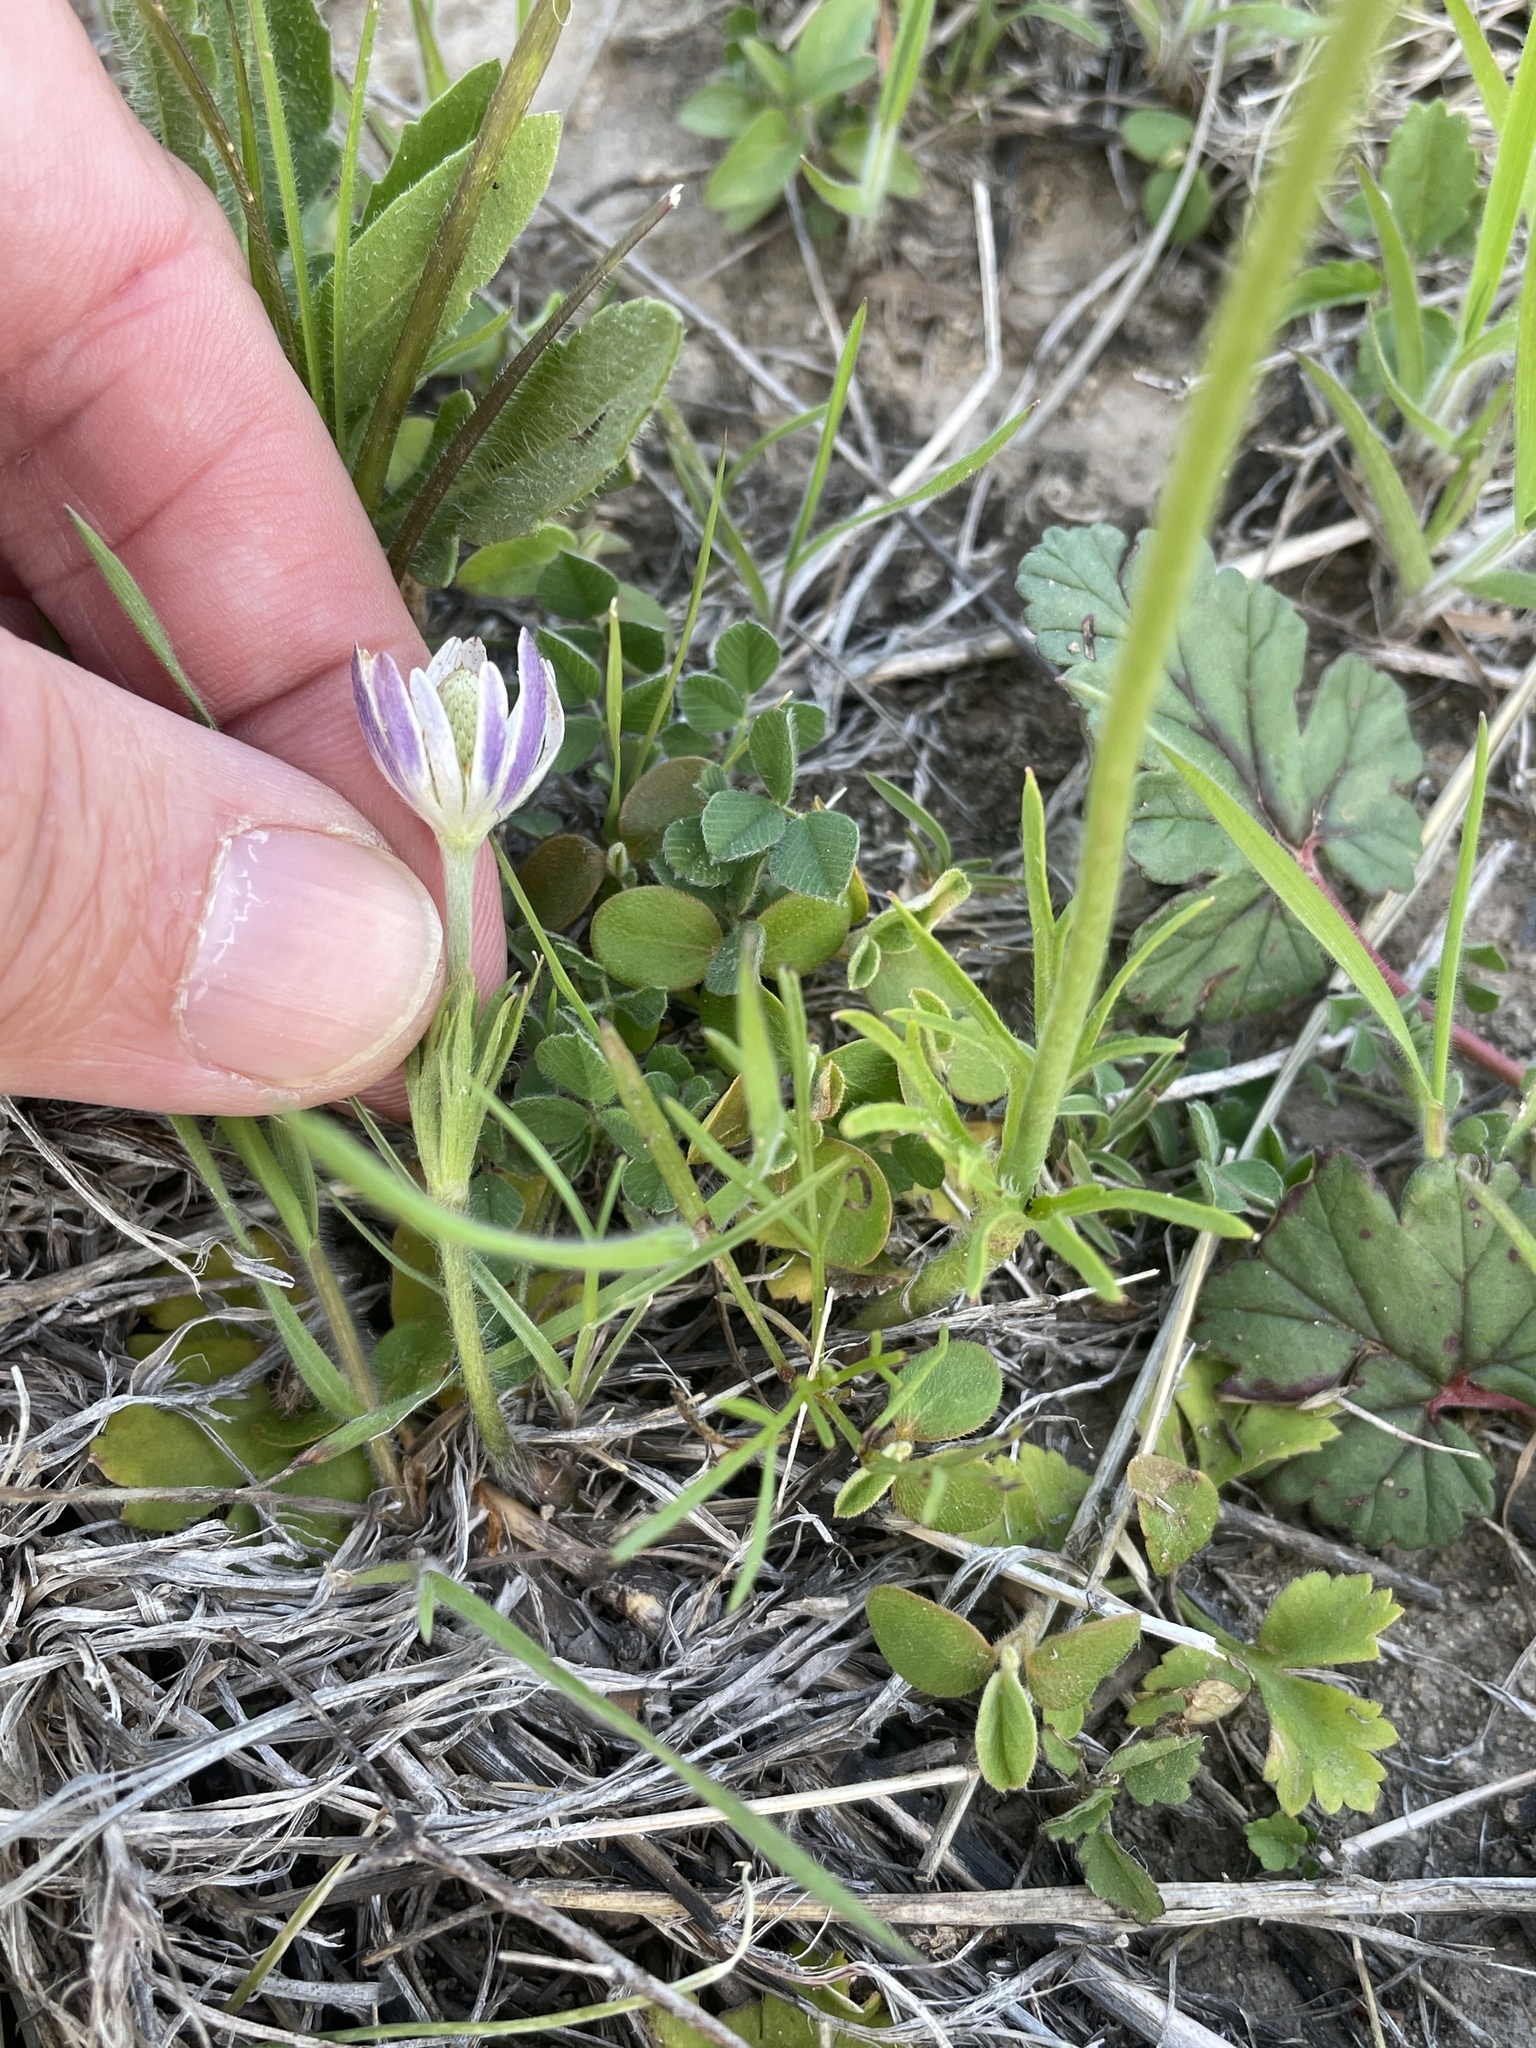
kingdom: Plantae
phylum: Tracheophyta
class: Magnoliopsida
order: Ranunculales
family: Ranunculaceae
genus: Anemone
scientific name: Anemone berlandieri
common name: Ten-petal anemone
